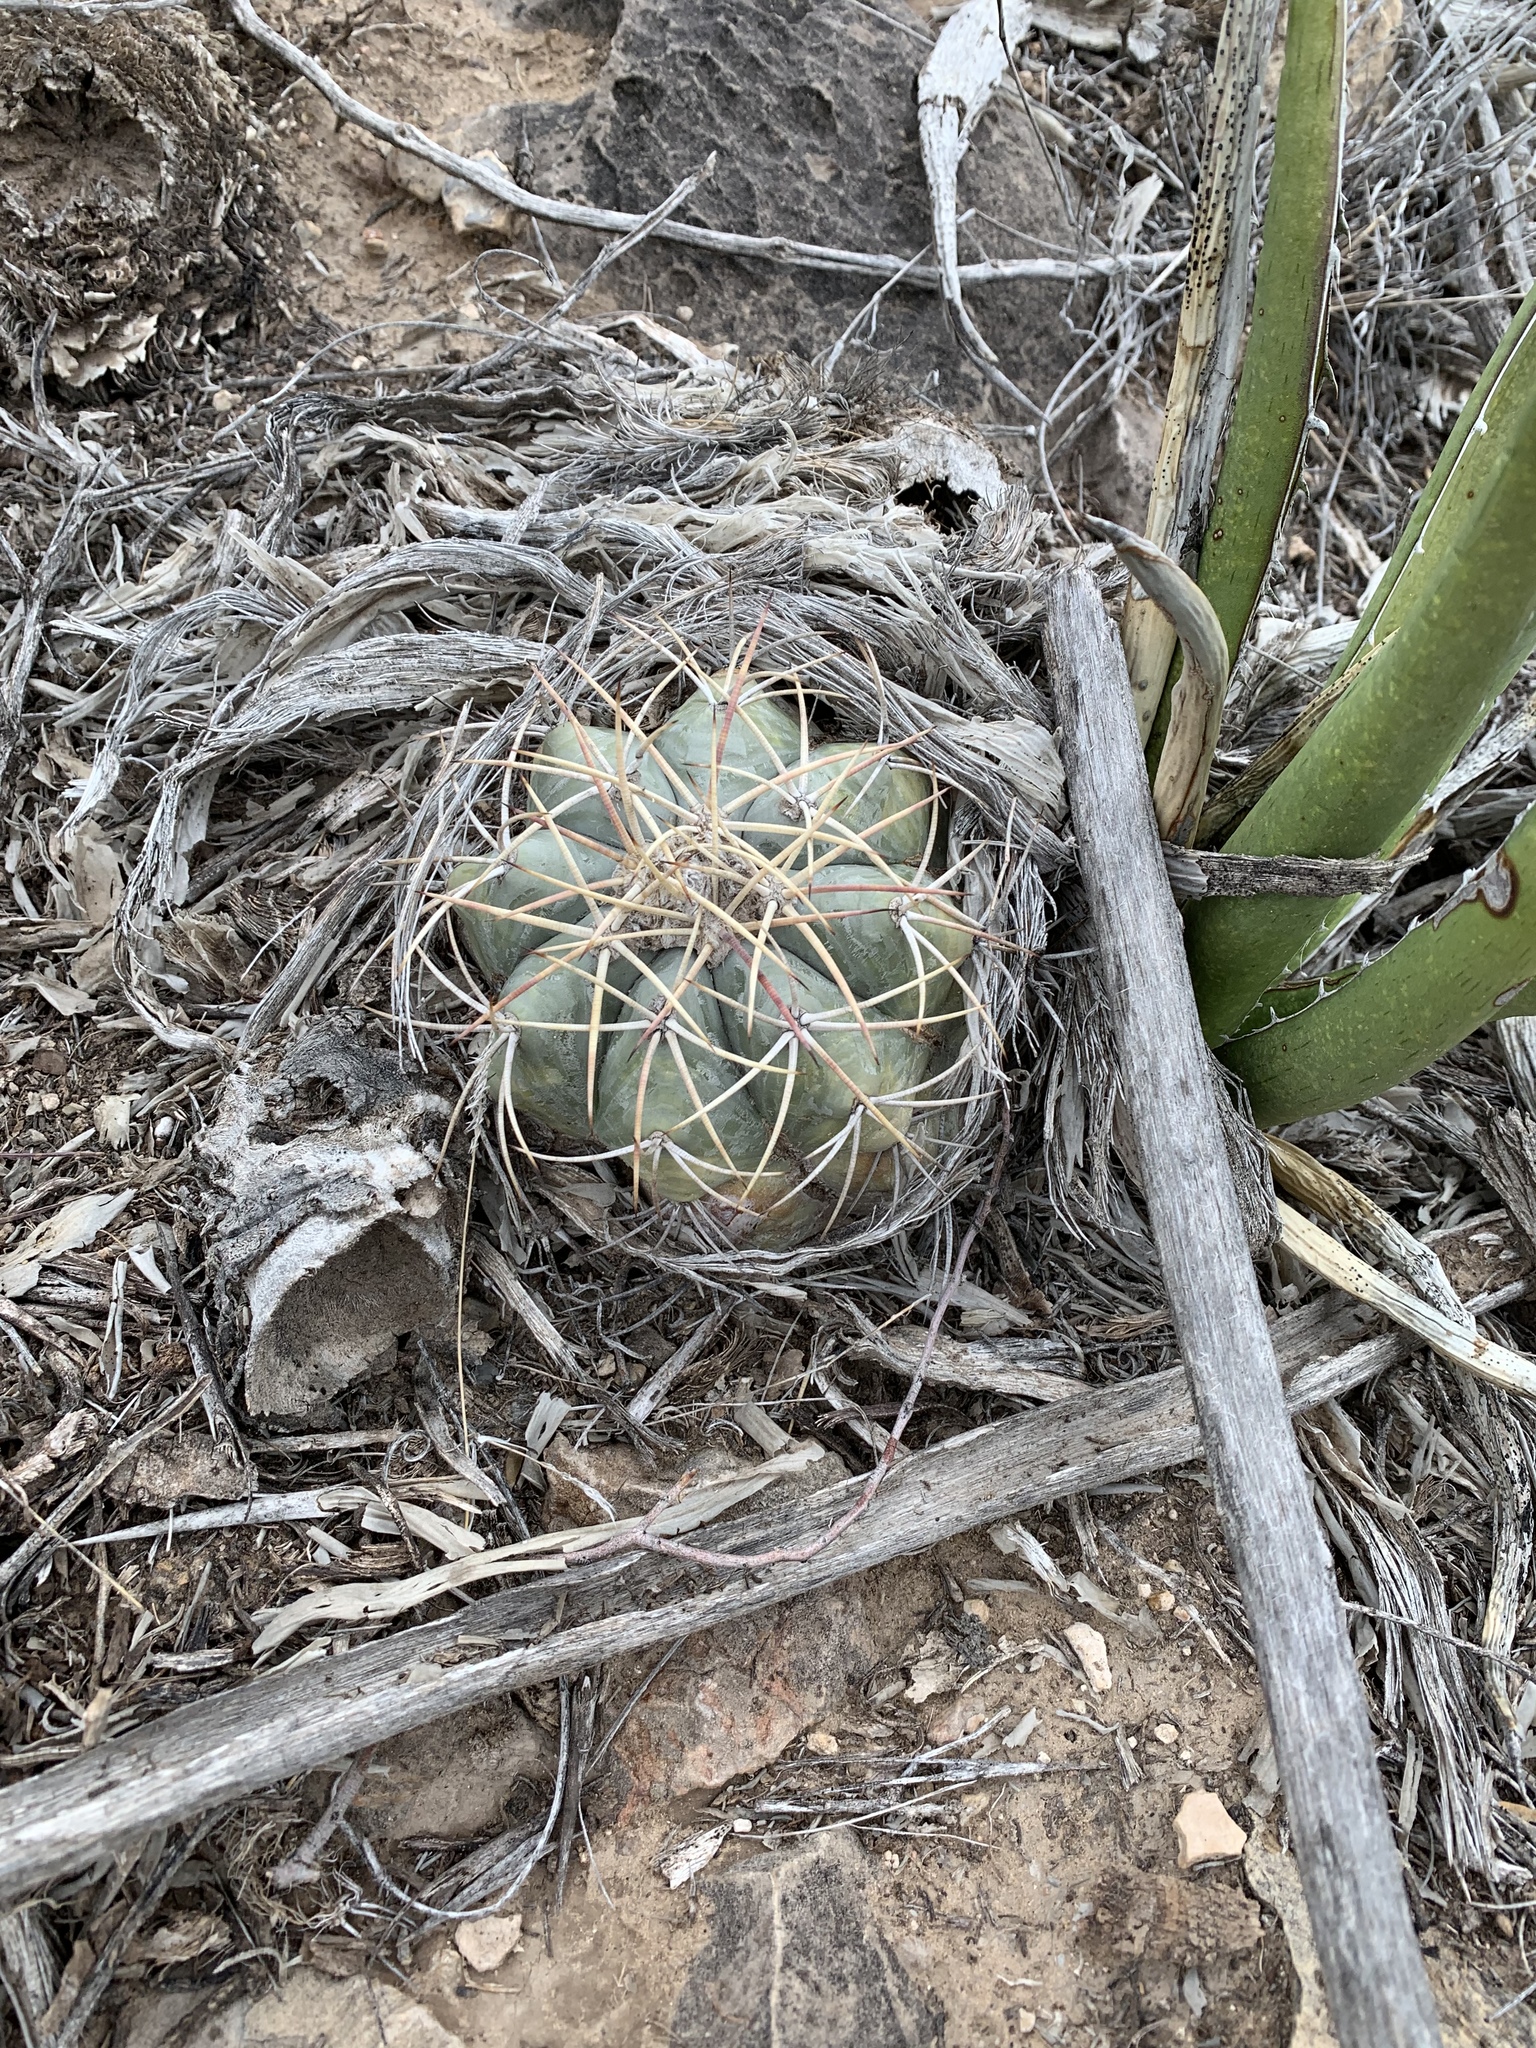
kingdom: Plantae
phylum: Tracheophyta
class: Magnoliopsida
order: Caryophyllales
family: Cactaceae
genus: Echinocactus
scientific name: Echinocactus horizonthalonius
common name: Devilshead
